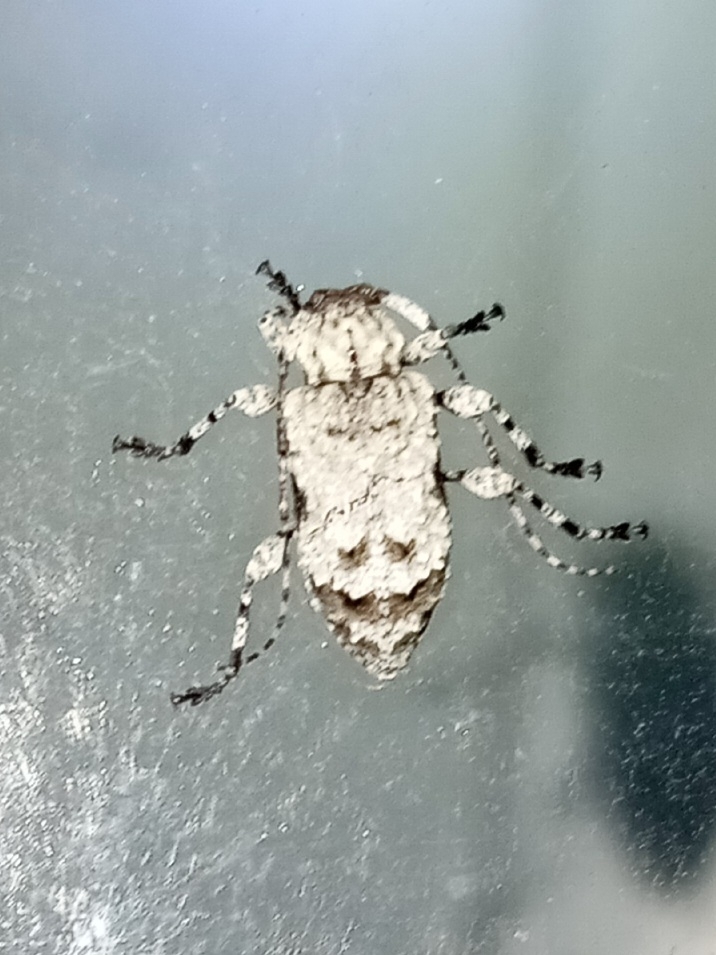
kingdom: Animalia
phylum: Arthropoda
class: Insecta
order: Coleoptera
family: Cerambycidae
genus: Leptostylus
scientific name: Leptostylus asperatus
